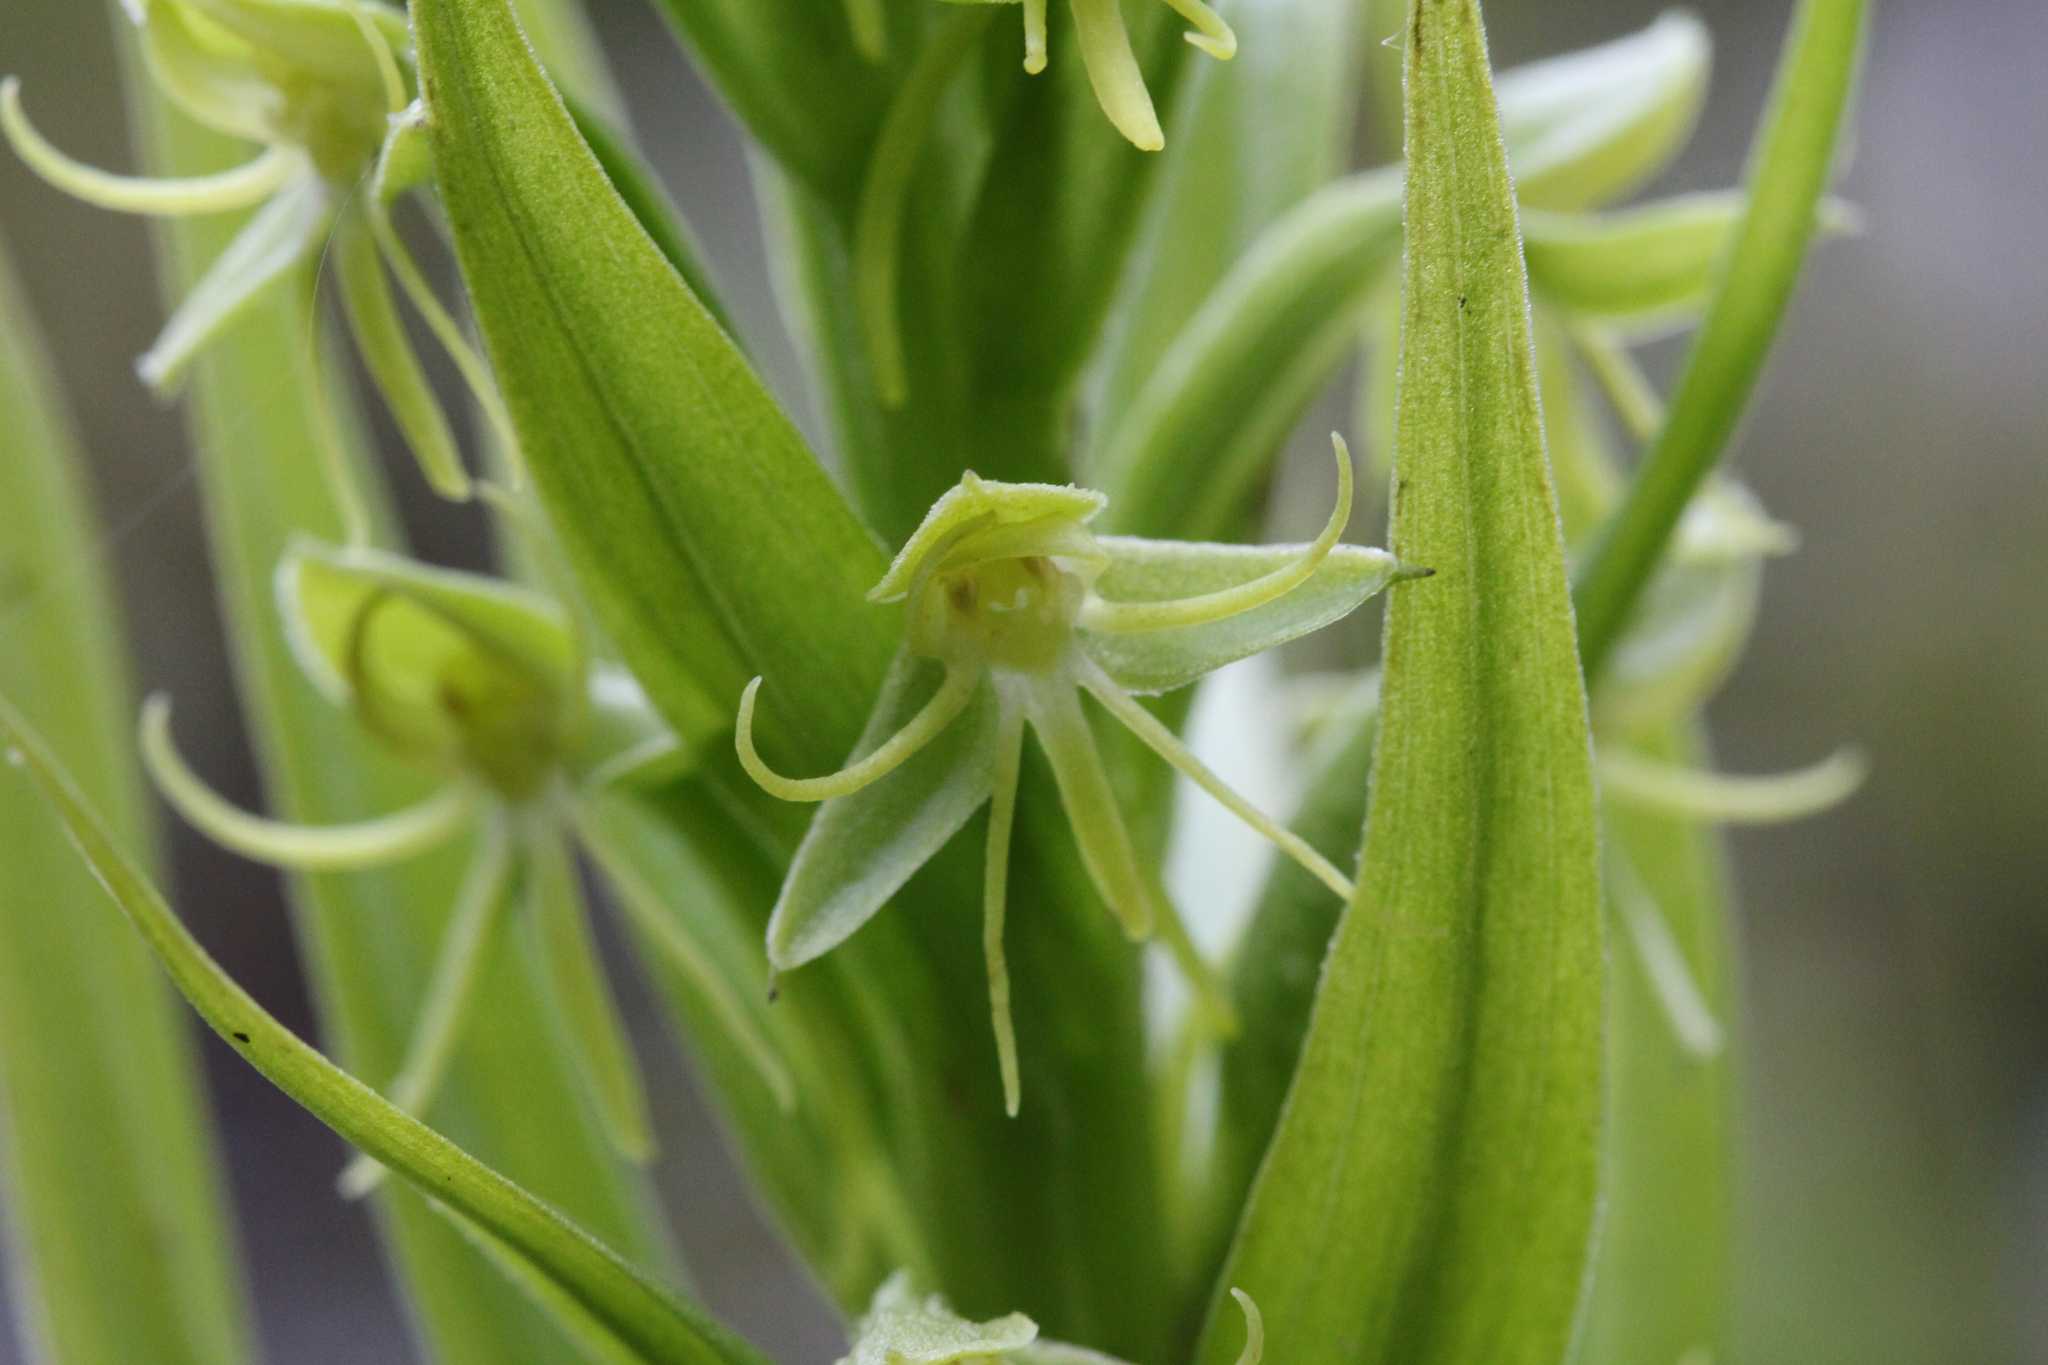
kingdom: Plantae
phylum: Tracheophyta
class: Liliopsida
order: Asparagales
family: Orchidaceae
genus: Habenaria
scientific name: Habenaria repens
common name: Water orchid
